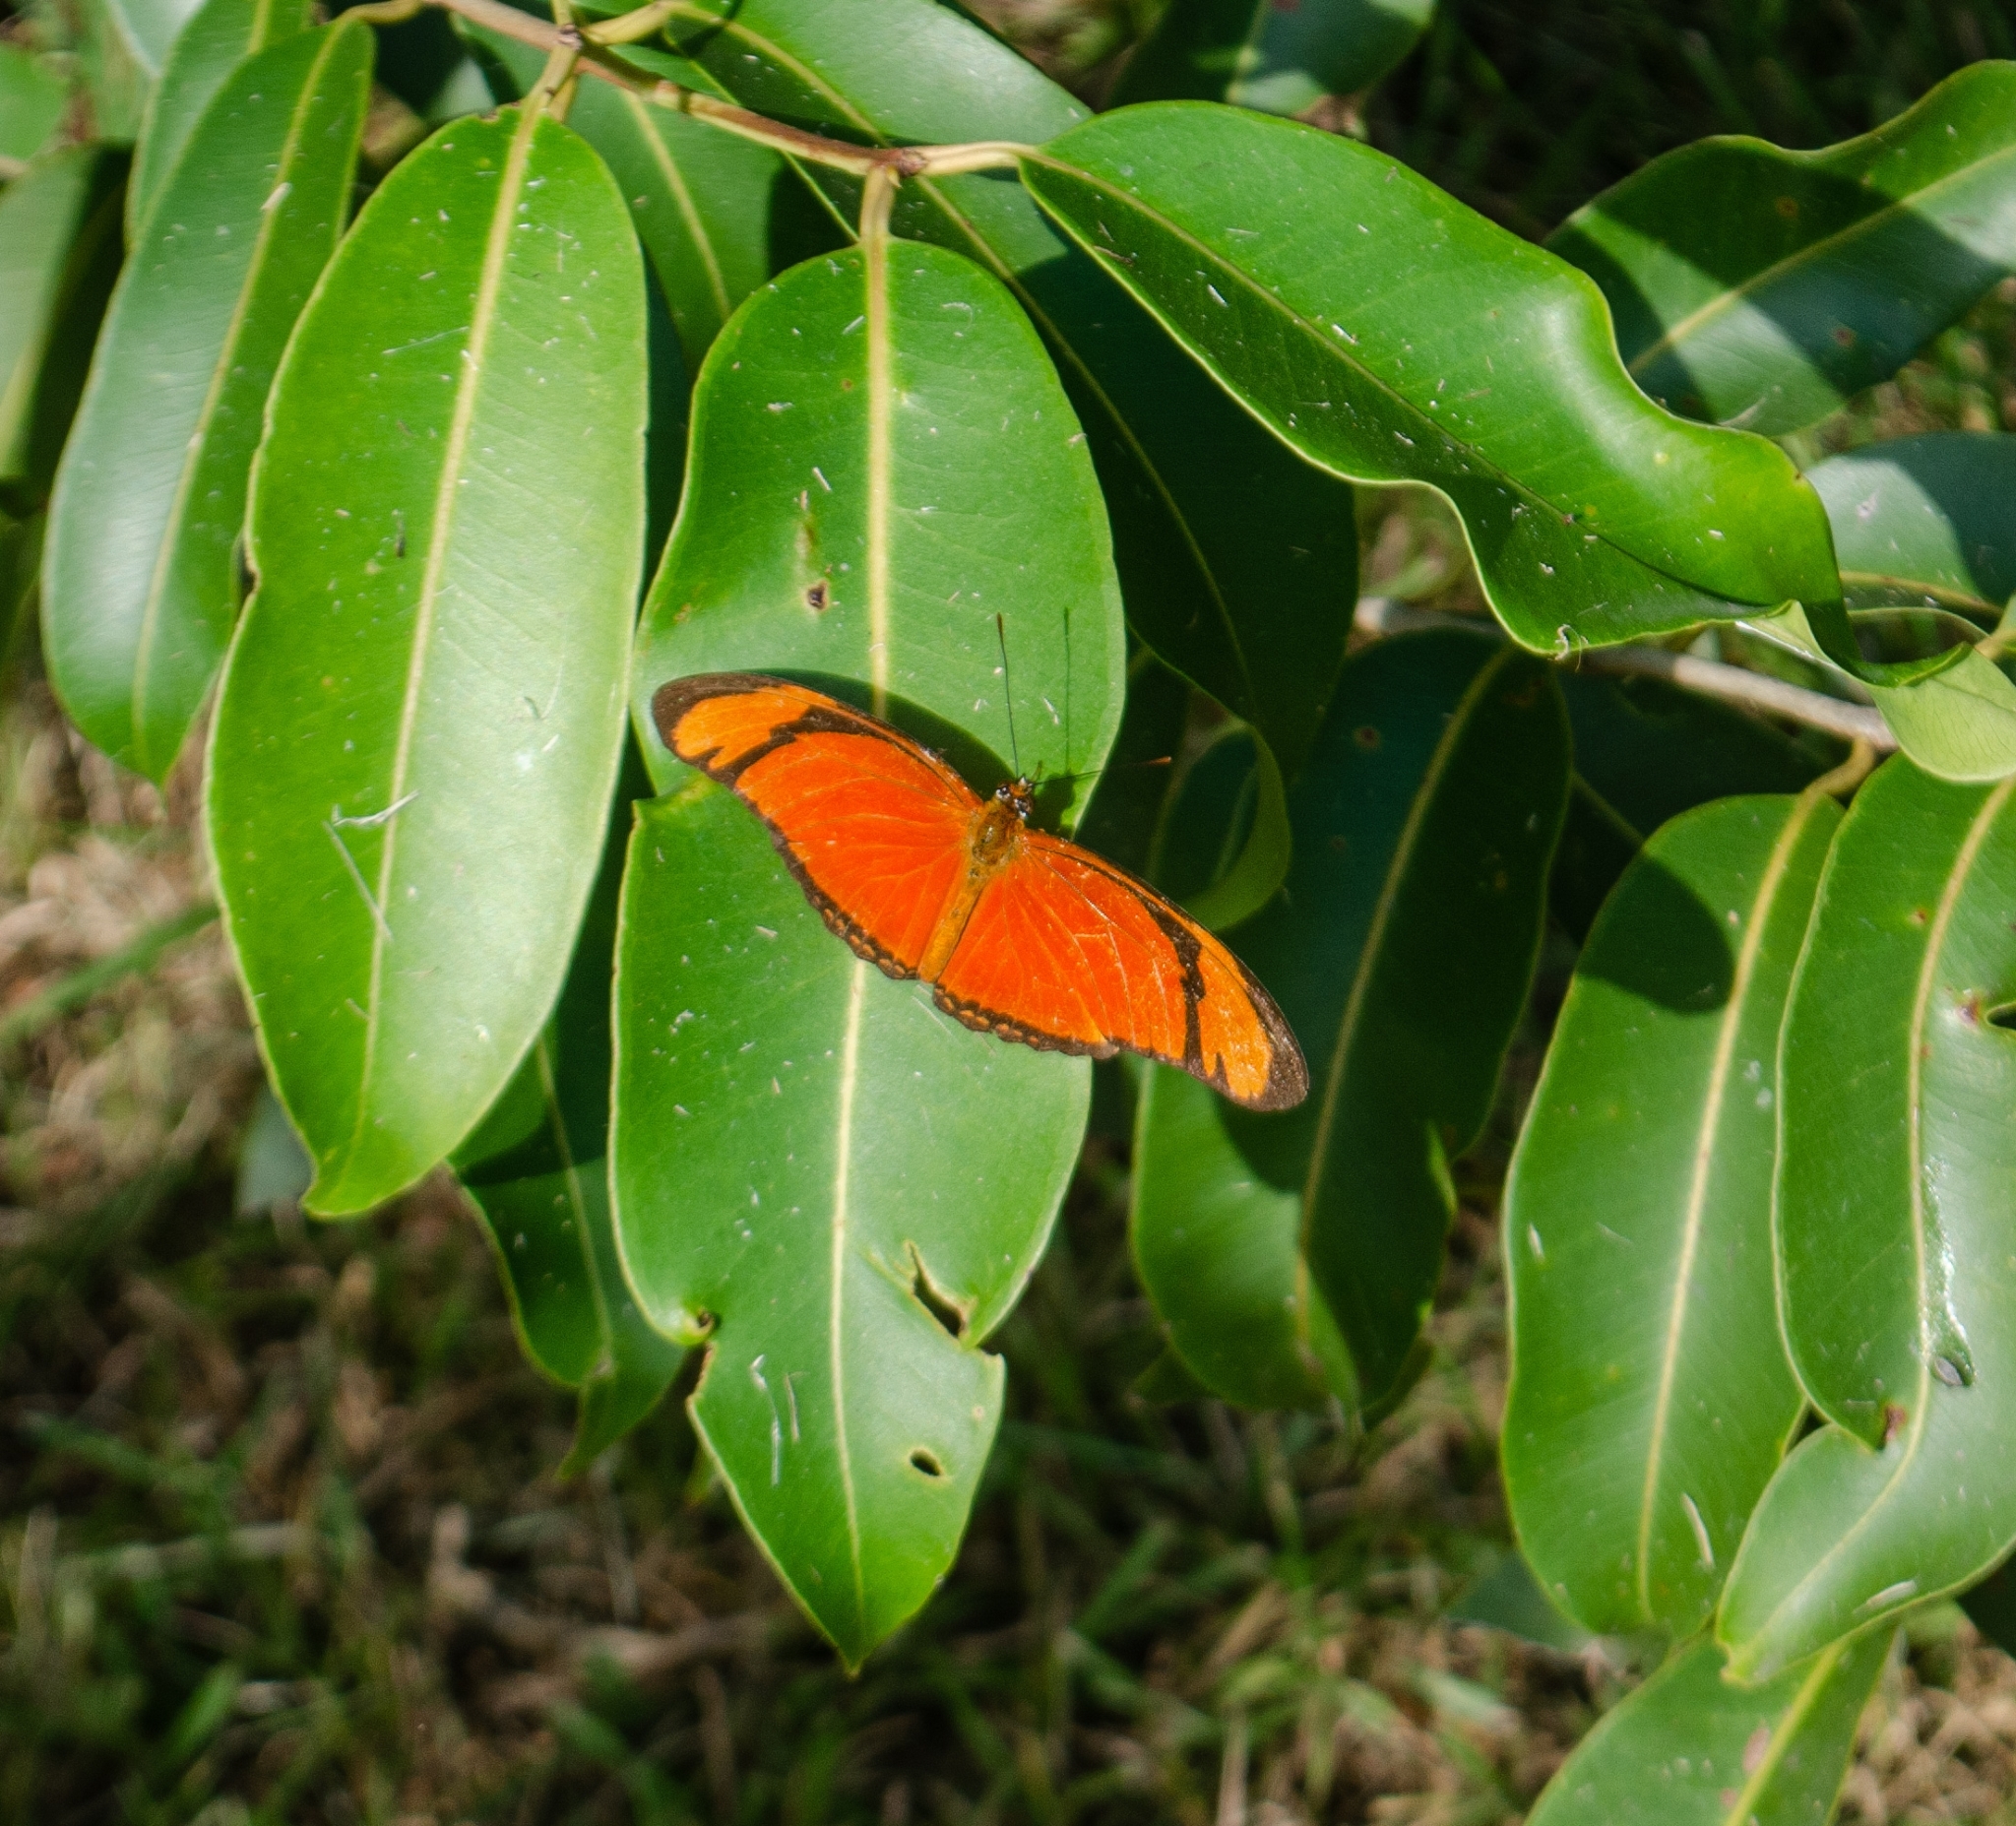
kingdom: Animalia
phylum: Arthropoda
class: Insecta
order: Lepidoptera
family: Nymphalidae
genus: Dryas
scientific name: Dryas iulia
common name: Flambeau
